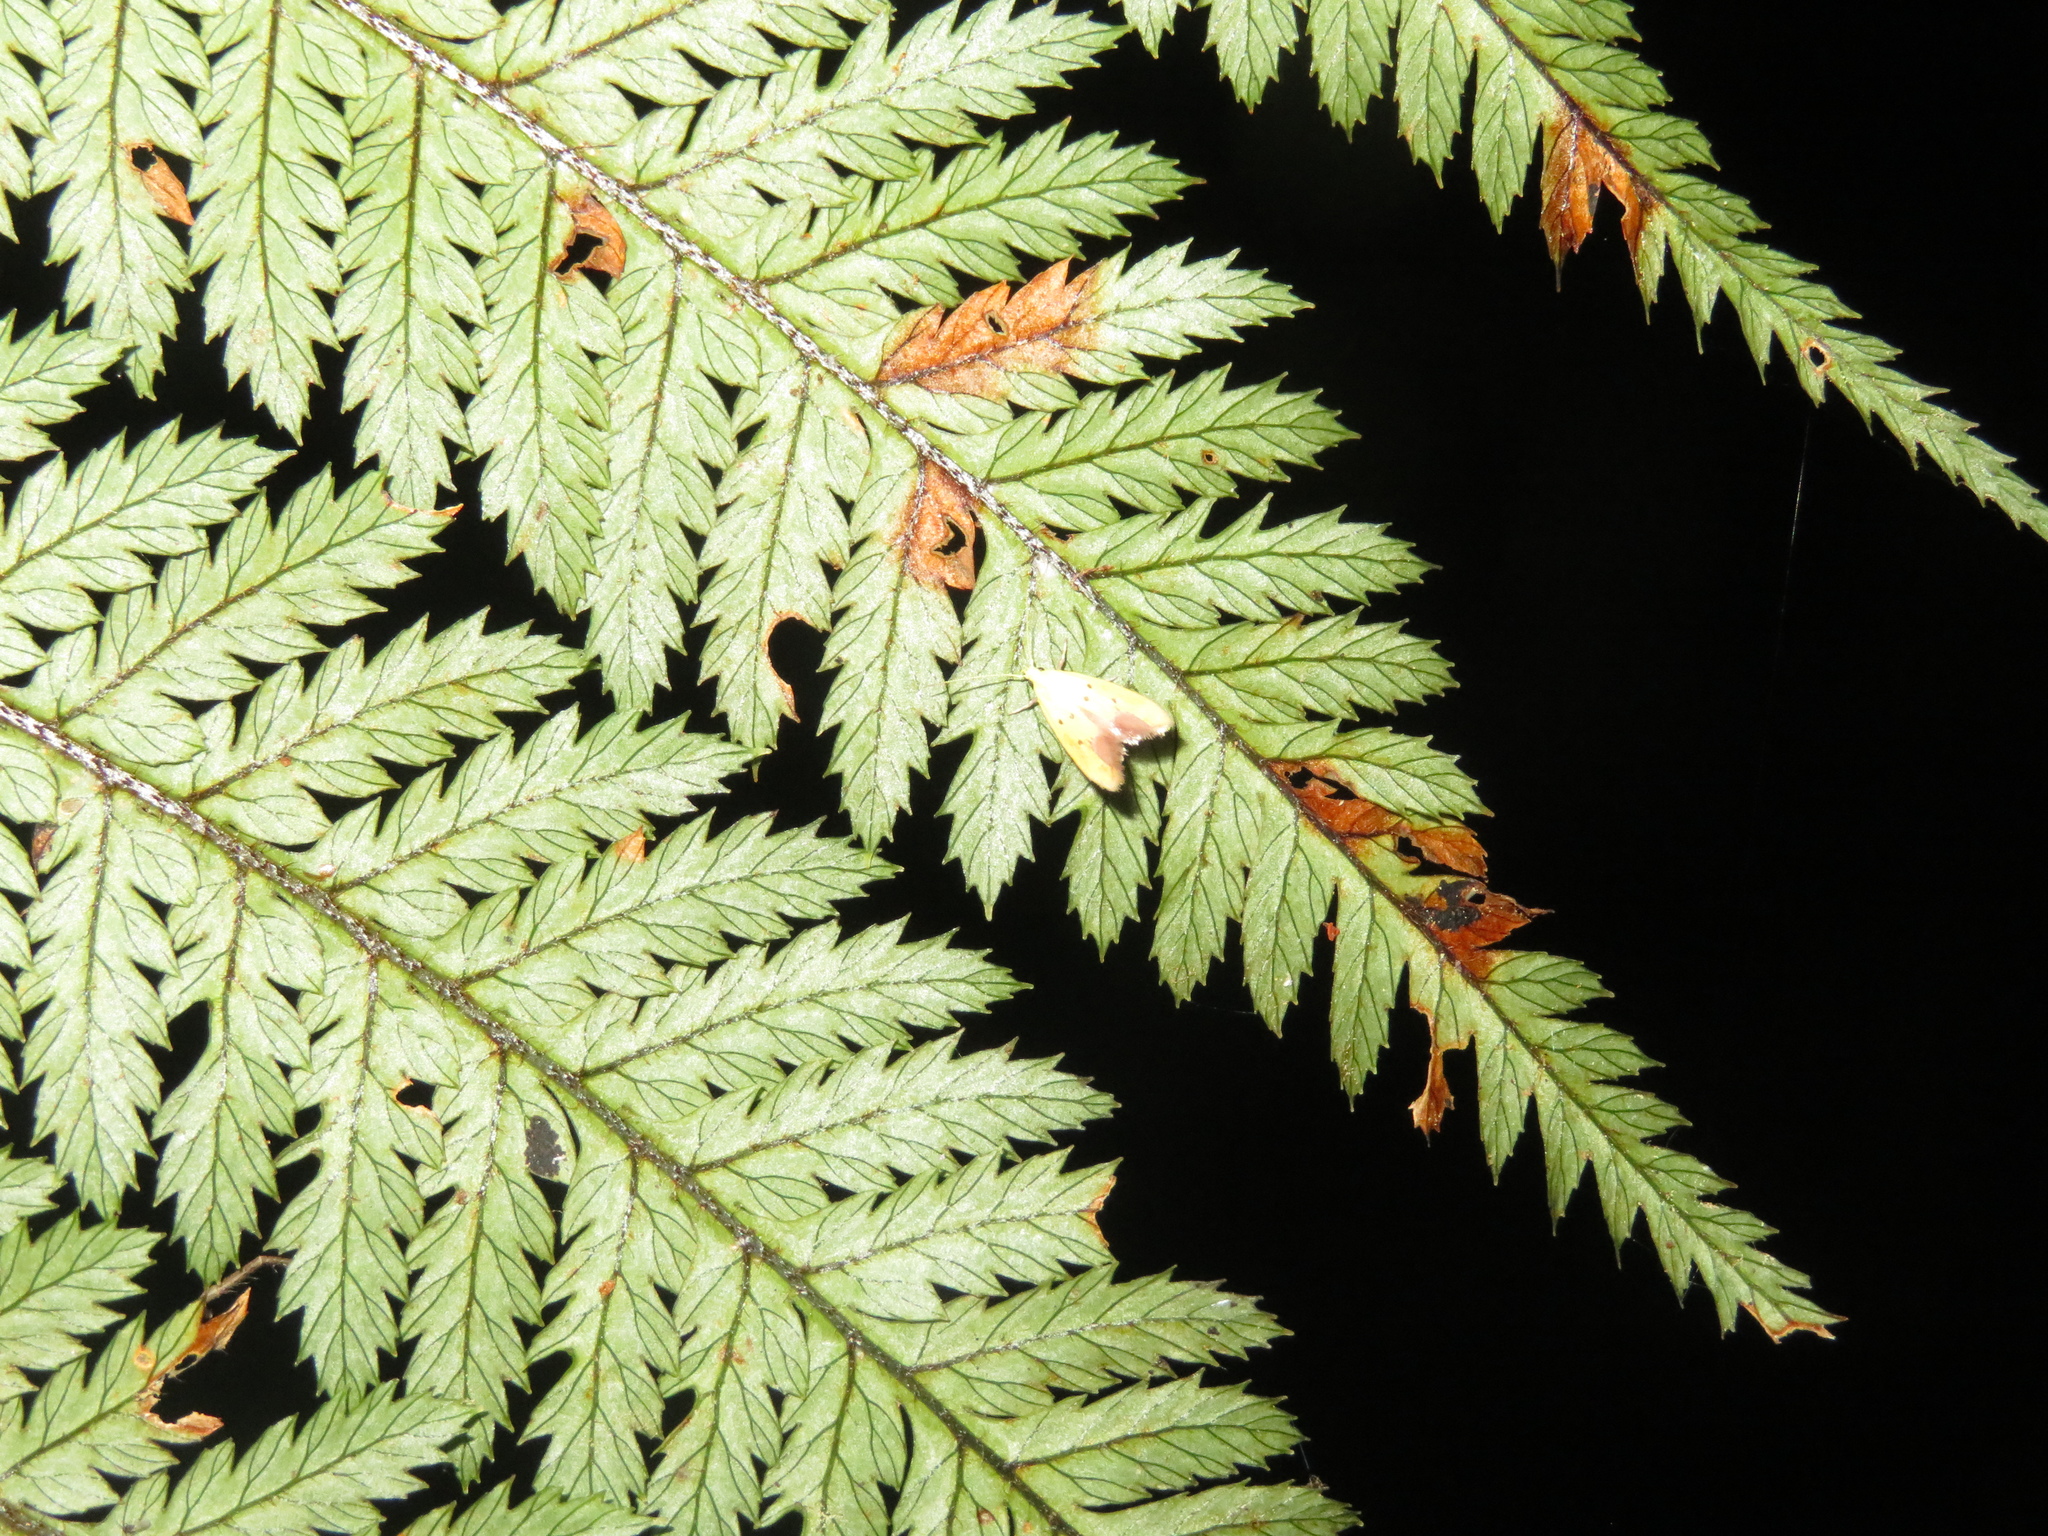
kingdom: Animalia
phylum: Arthropoda
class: Insecta
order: Lepidoptera
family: Oecophoridae
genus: Gymnobathra
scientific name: Gymnobathra flavidella
